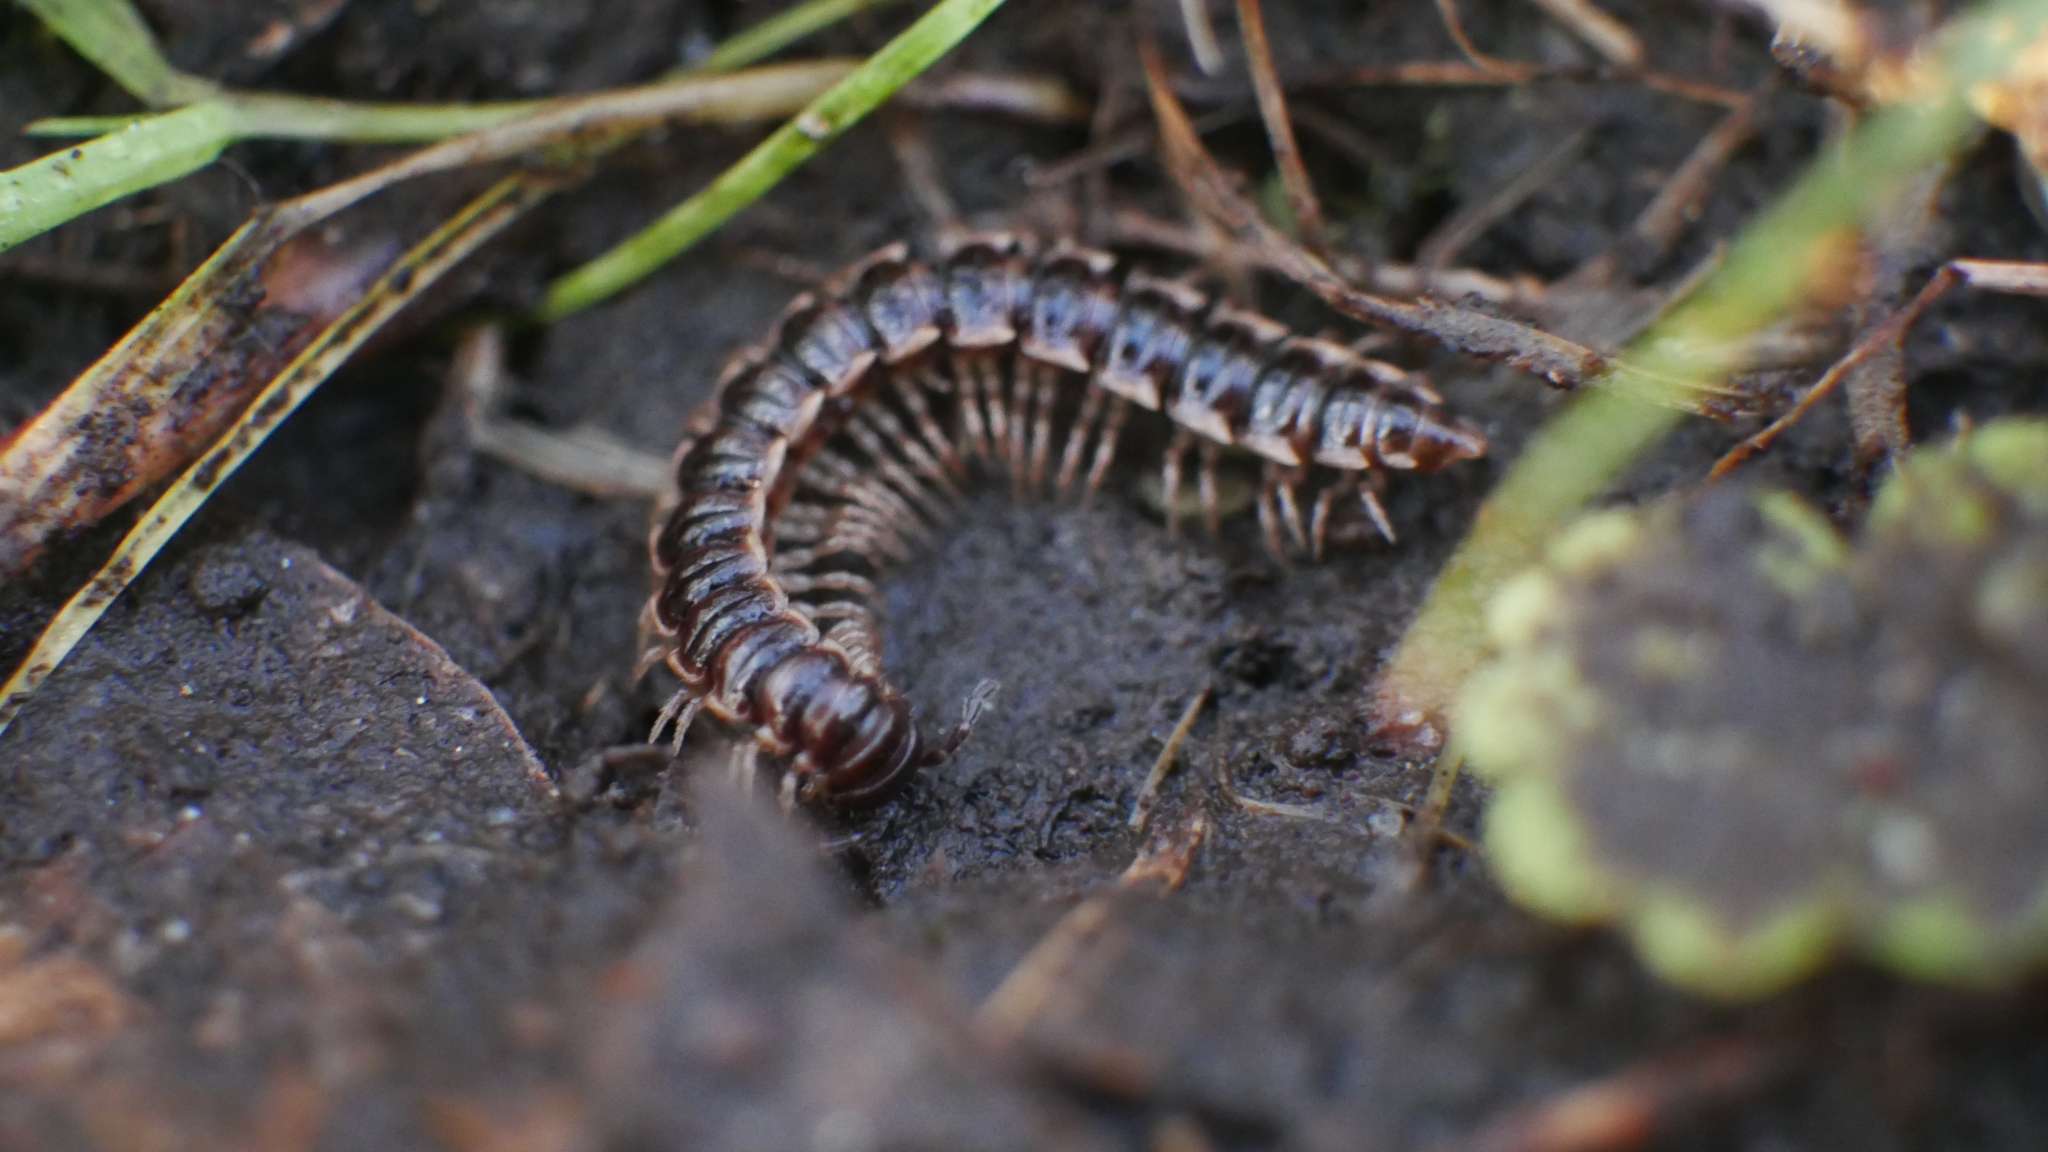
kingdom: Animalia
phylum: Arthropoda
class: Diplopoda
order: Polydesmida
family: Paradoxosomatidae
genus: Oxidus
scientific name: Oxidus gracilis
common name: Greenhouse millipede
